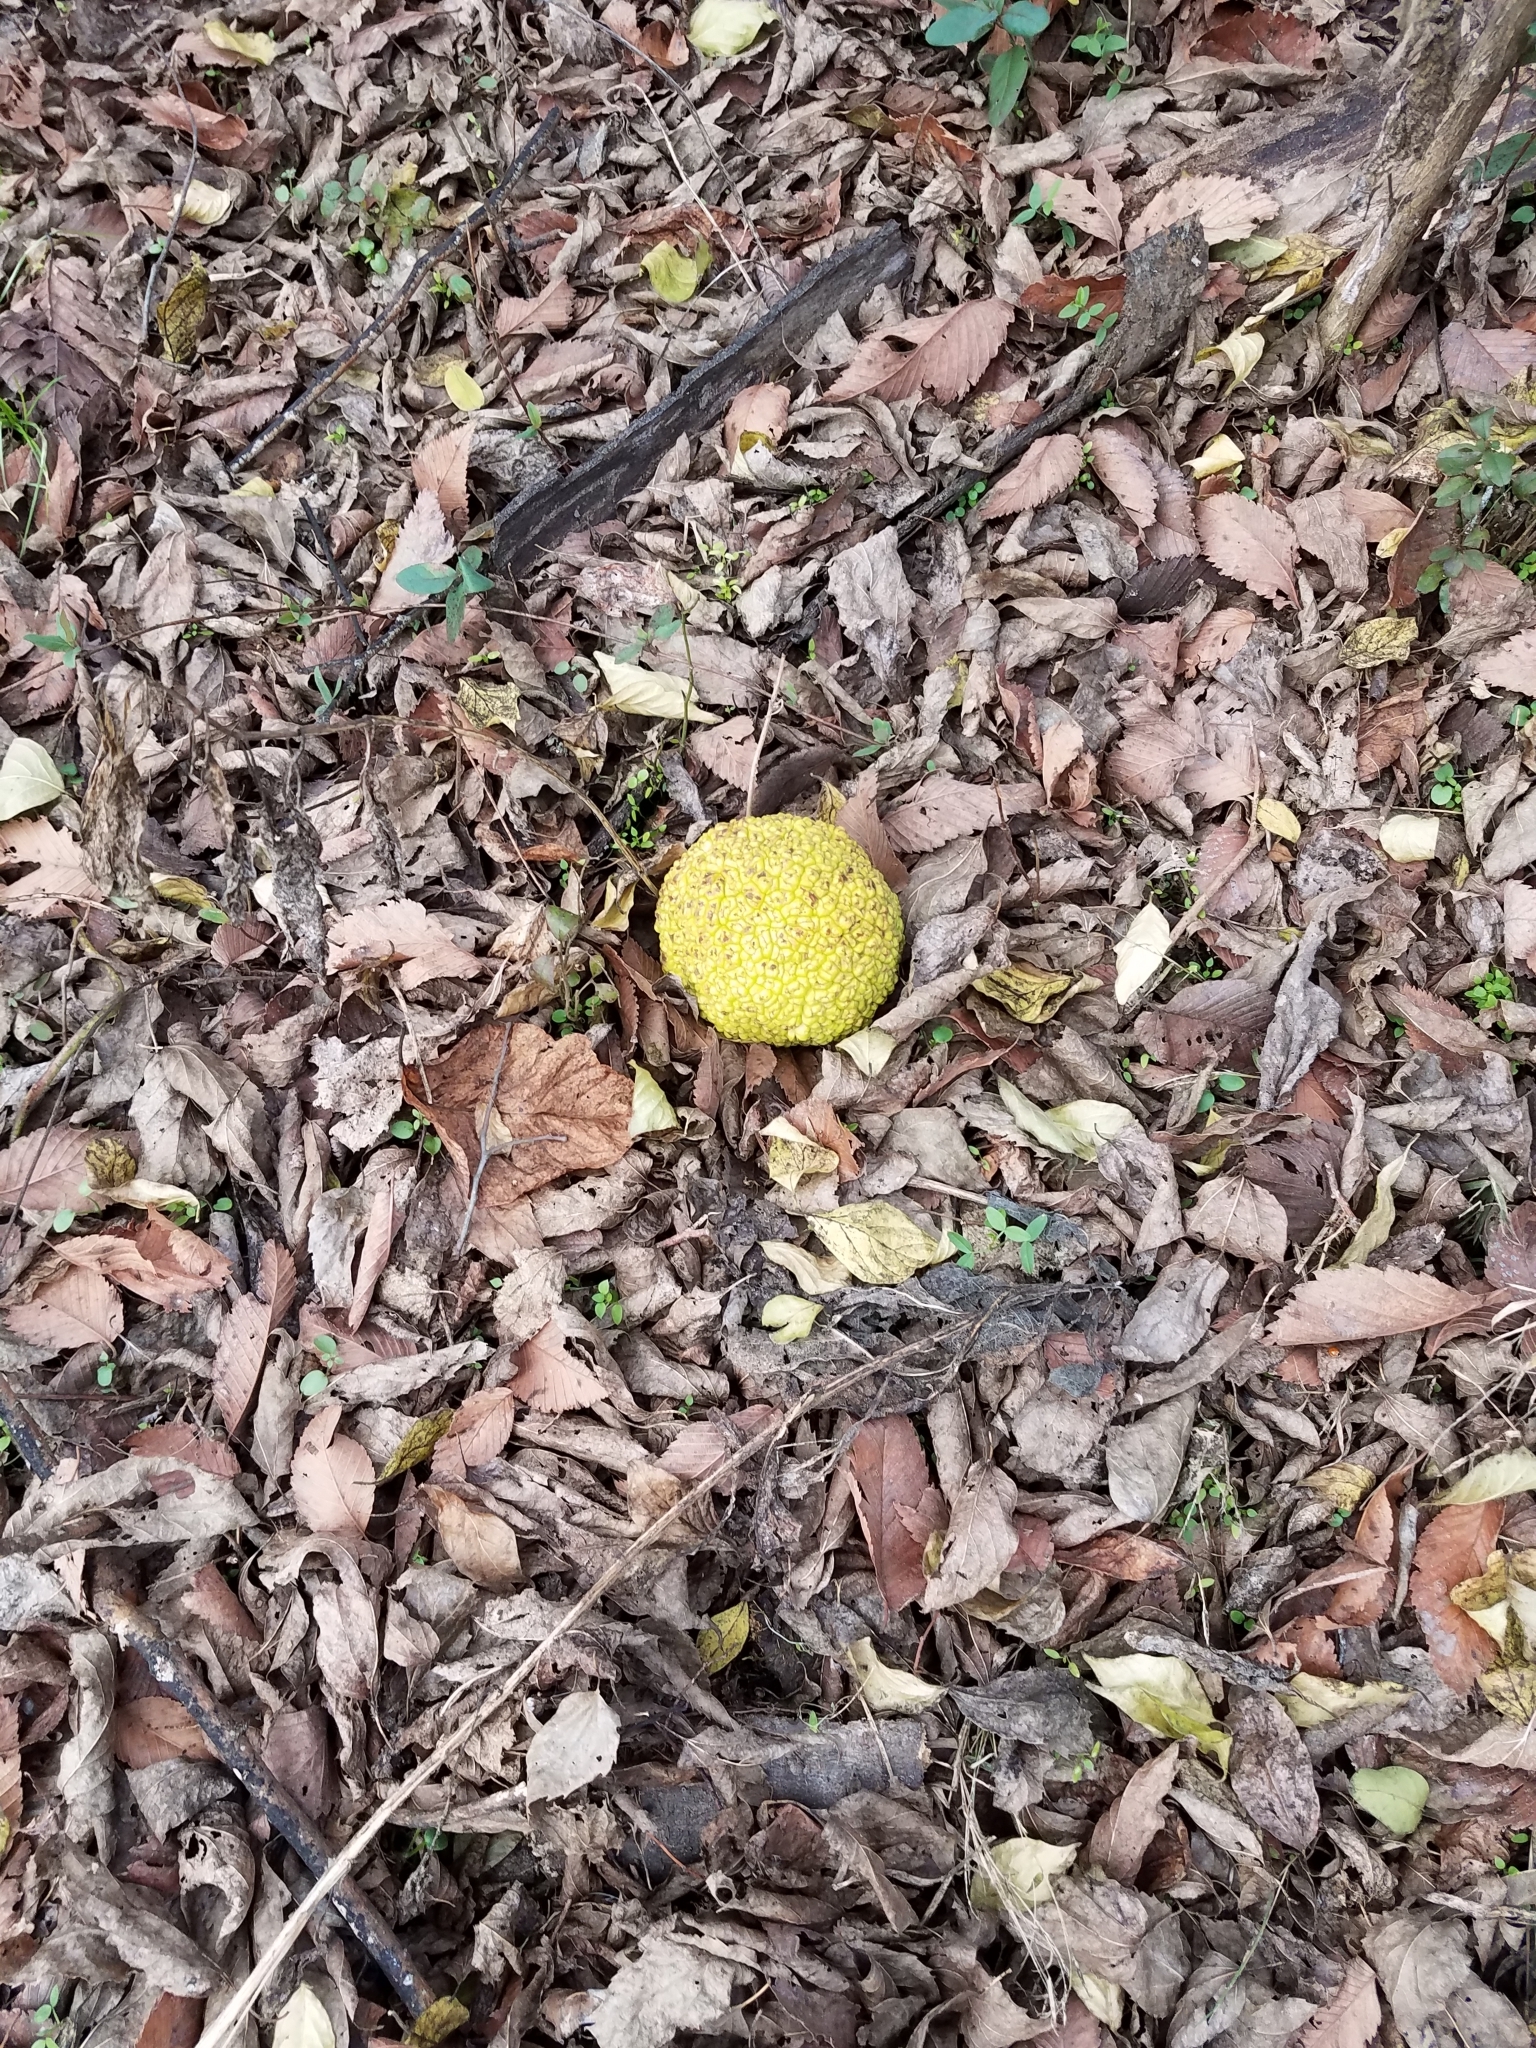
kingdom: Plantae
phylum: Tracheophyta
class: Magnoliopsida
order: Rosales
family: Moraceae
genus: Maclura
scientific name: Maclura pomifera
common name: Osage-orange
